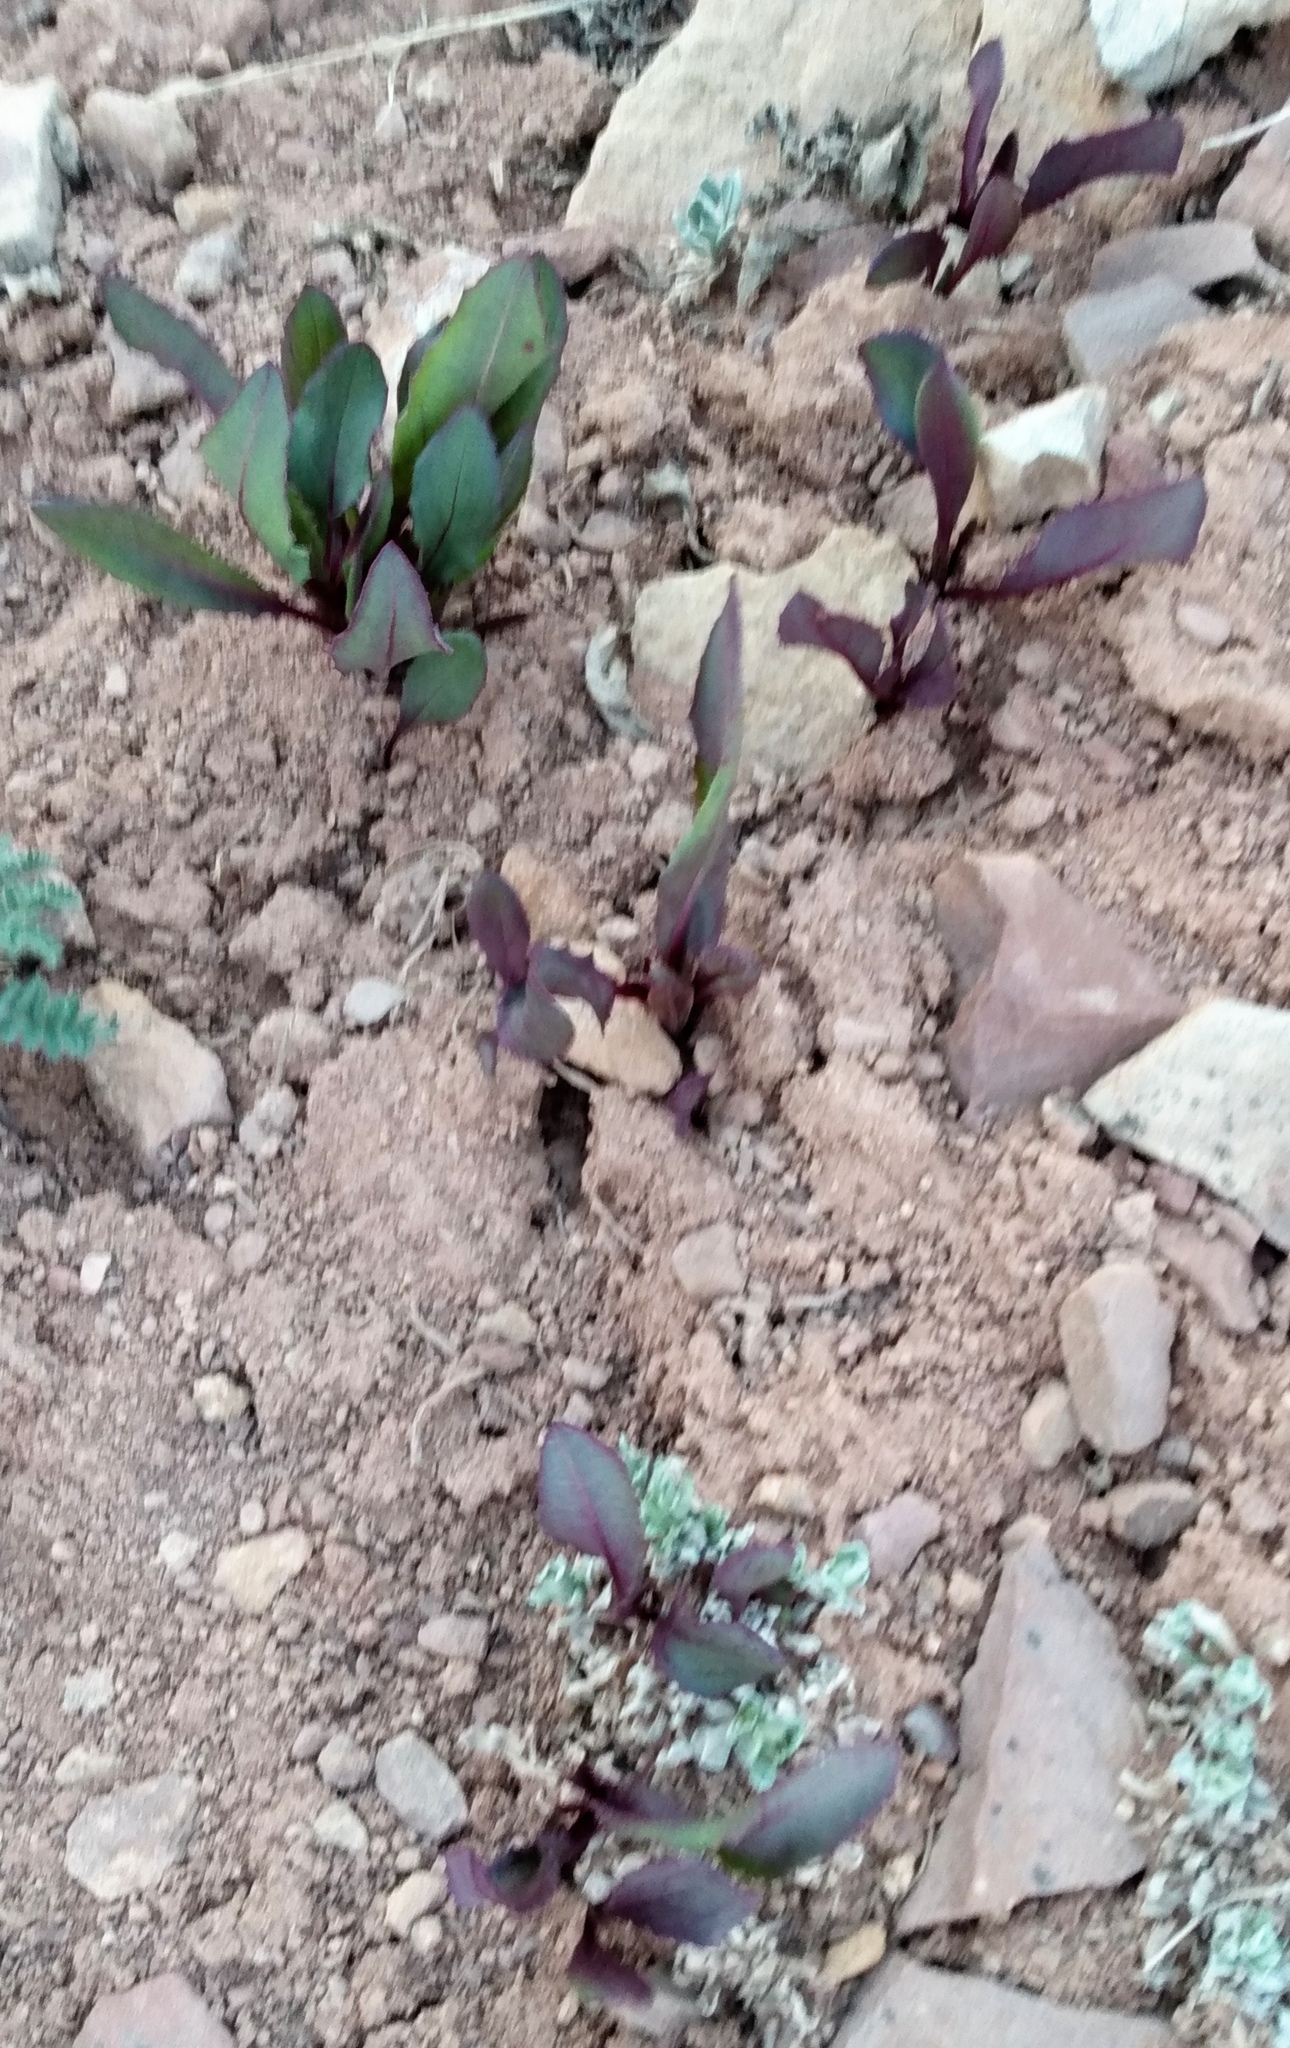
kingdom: Plantae
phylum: Tracheophyta
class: Magnoliopsida
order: Asterales
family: Asteraceae
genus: Senecio
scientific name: Senecio amplectens
